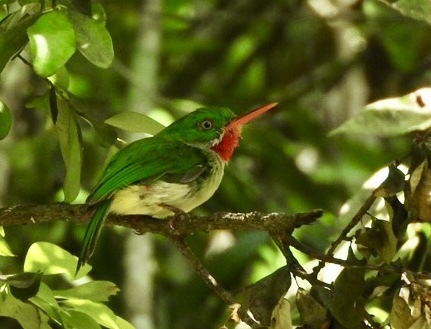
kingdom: Animalia
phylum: Chordata
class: Aves
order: Coraciiformes
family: Todidae
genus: Todus
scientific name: Todus todus
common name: Jamaican tody
